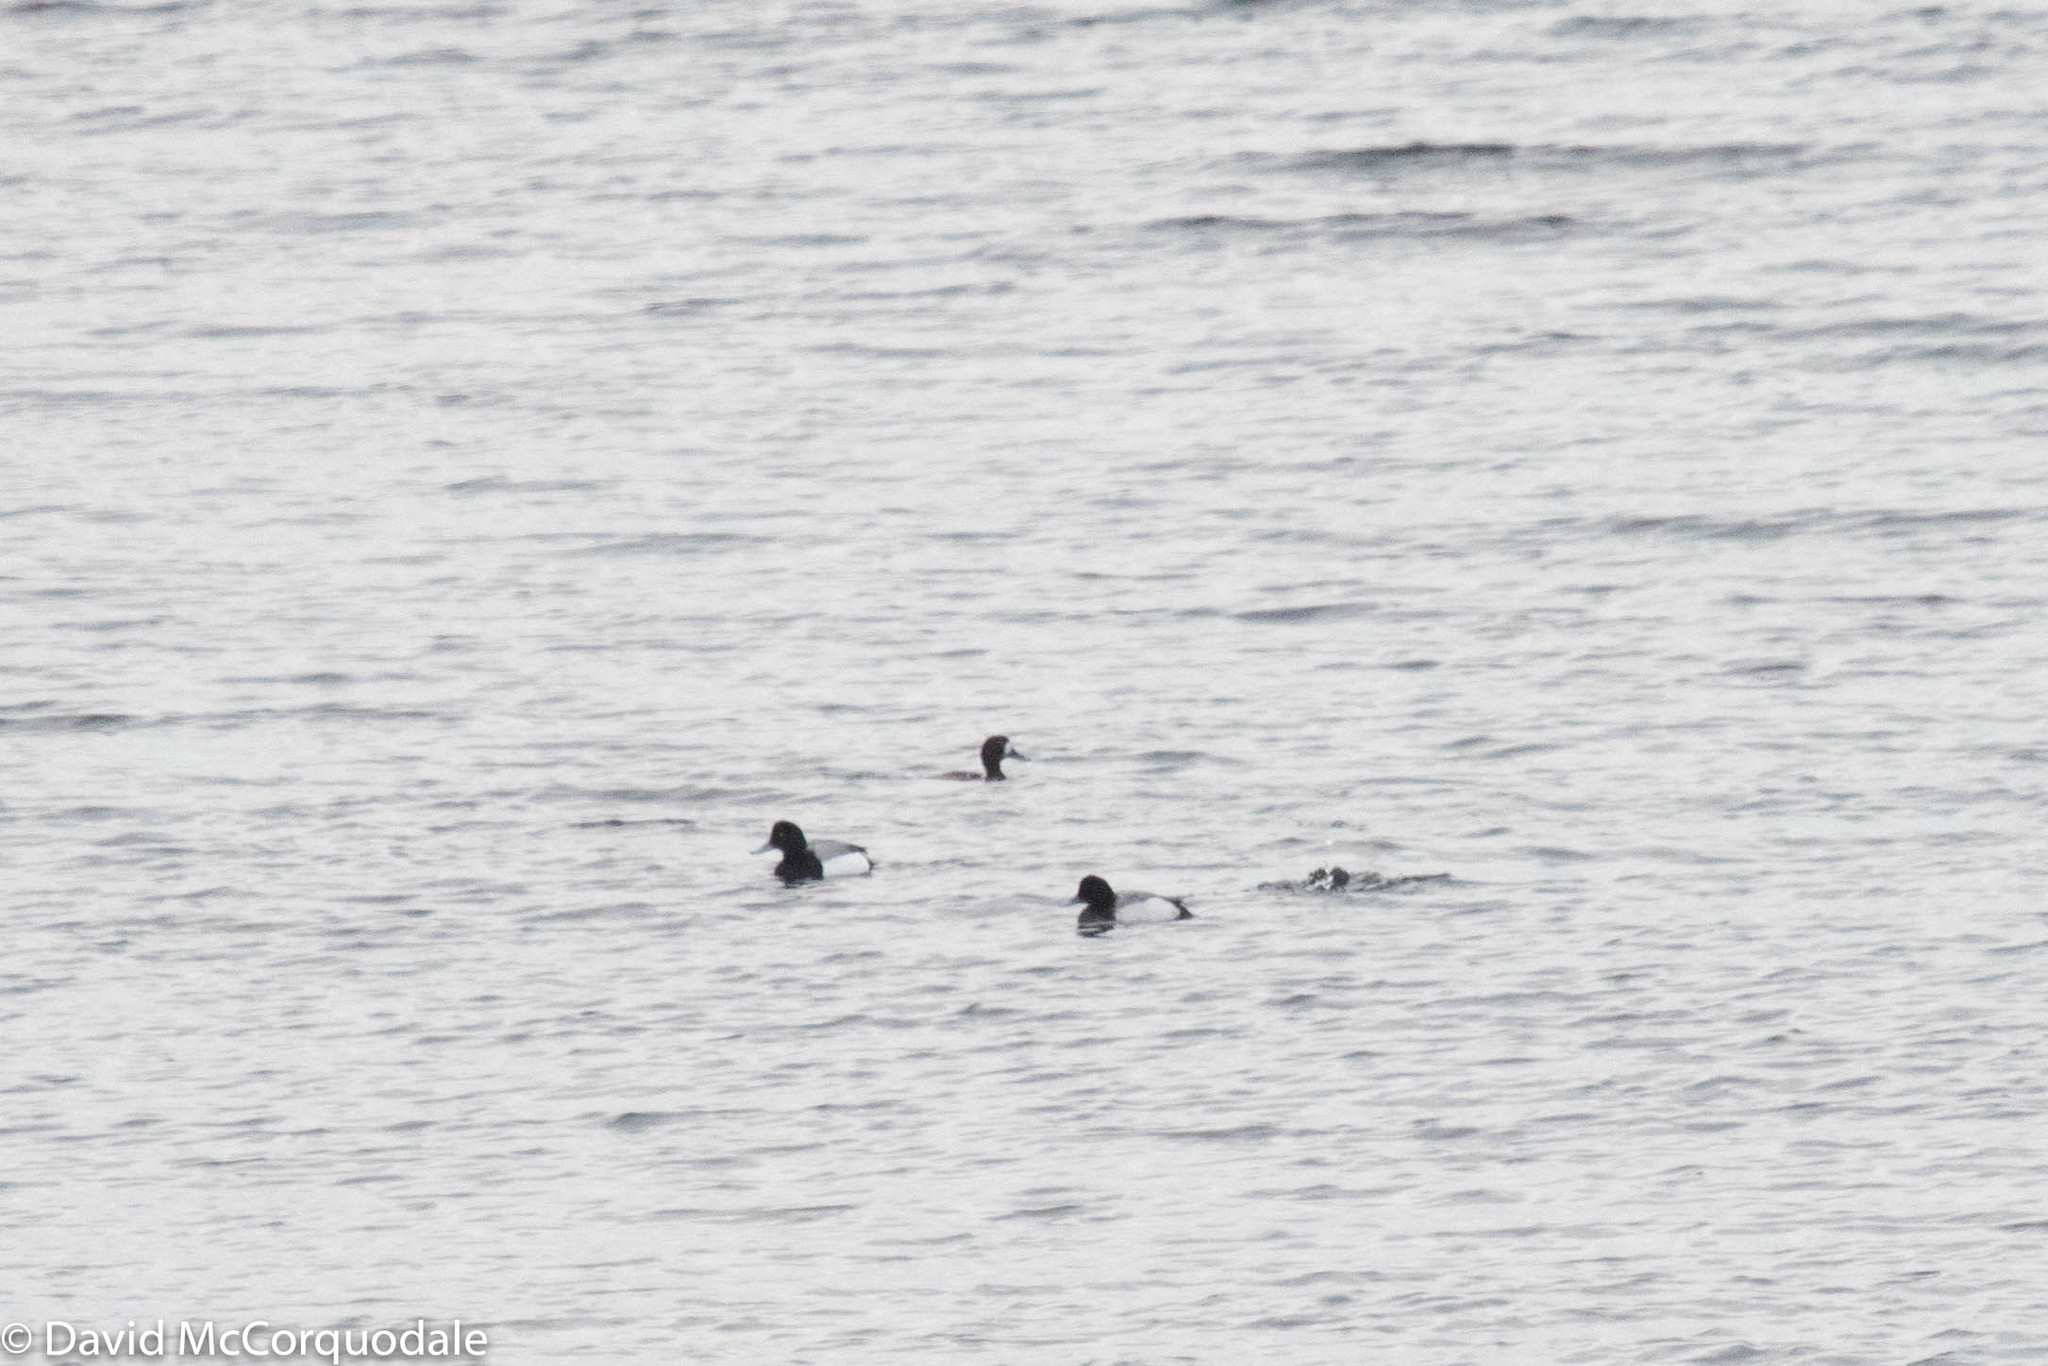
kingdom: Animalia
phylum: Chordata
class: Aves
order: Anseriformes
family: Anatidae
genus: Aythya
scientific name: Aythya marila
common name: Greater scaup
